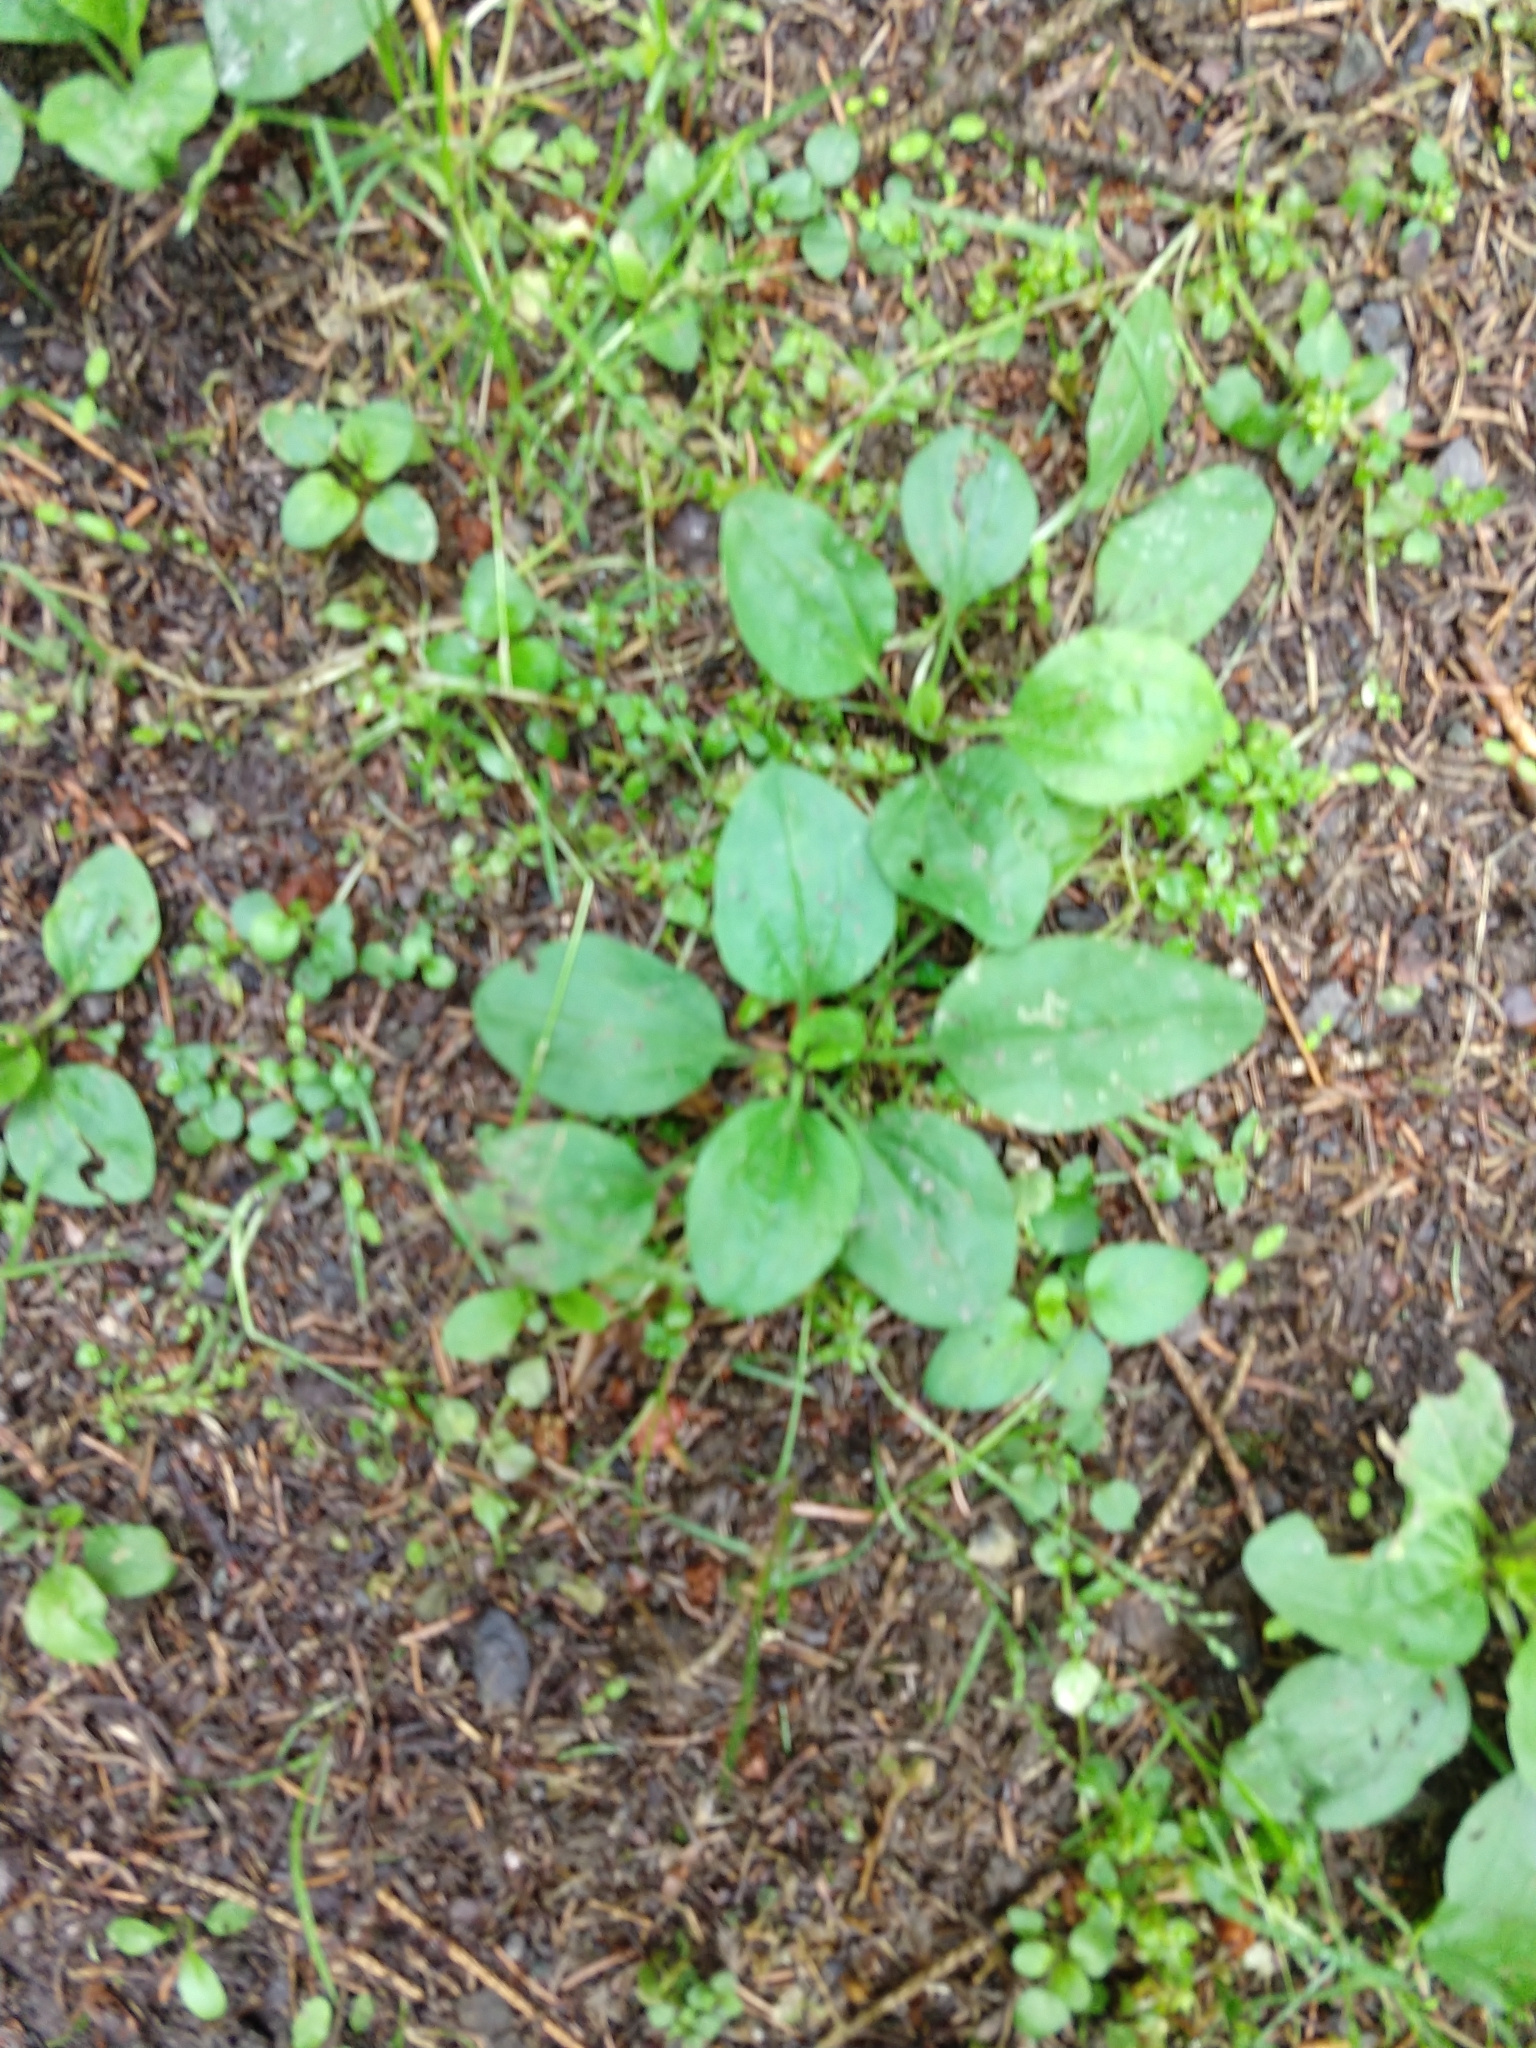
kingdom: Plantae
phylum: Tracheophyta
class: Magnoliopsida
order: Lamiales
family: Plantaginaceae
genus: Plantago
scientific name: Plantago major
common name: Common plantain
